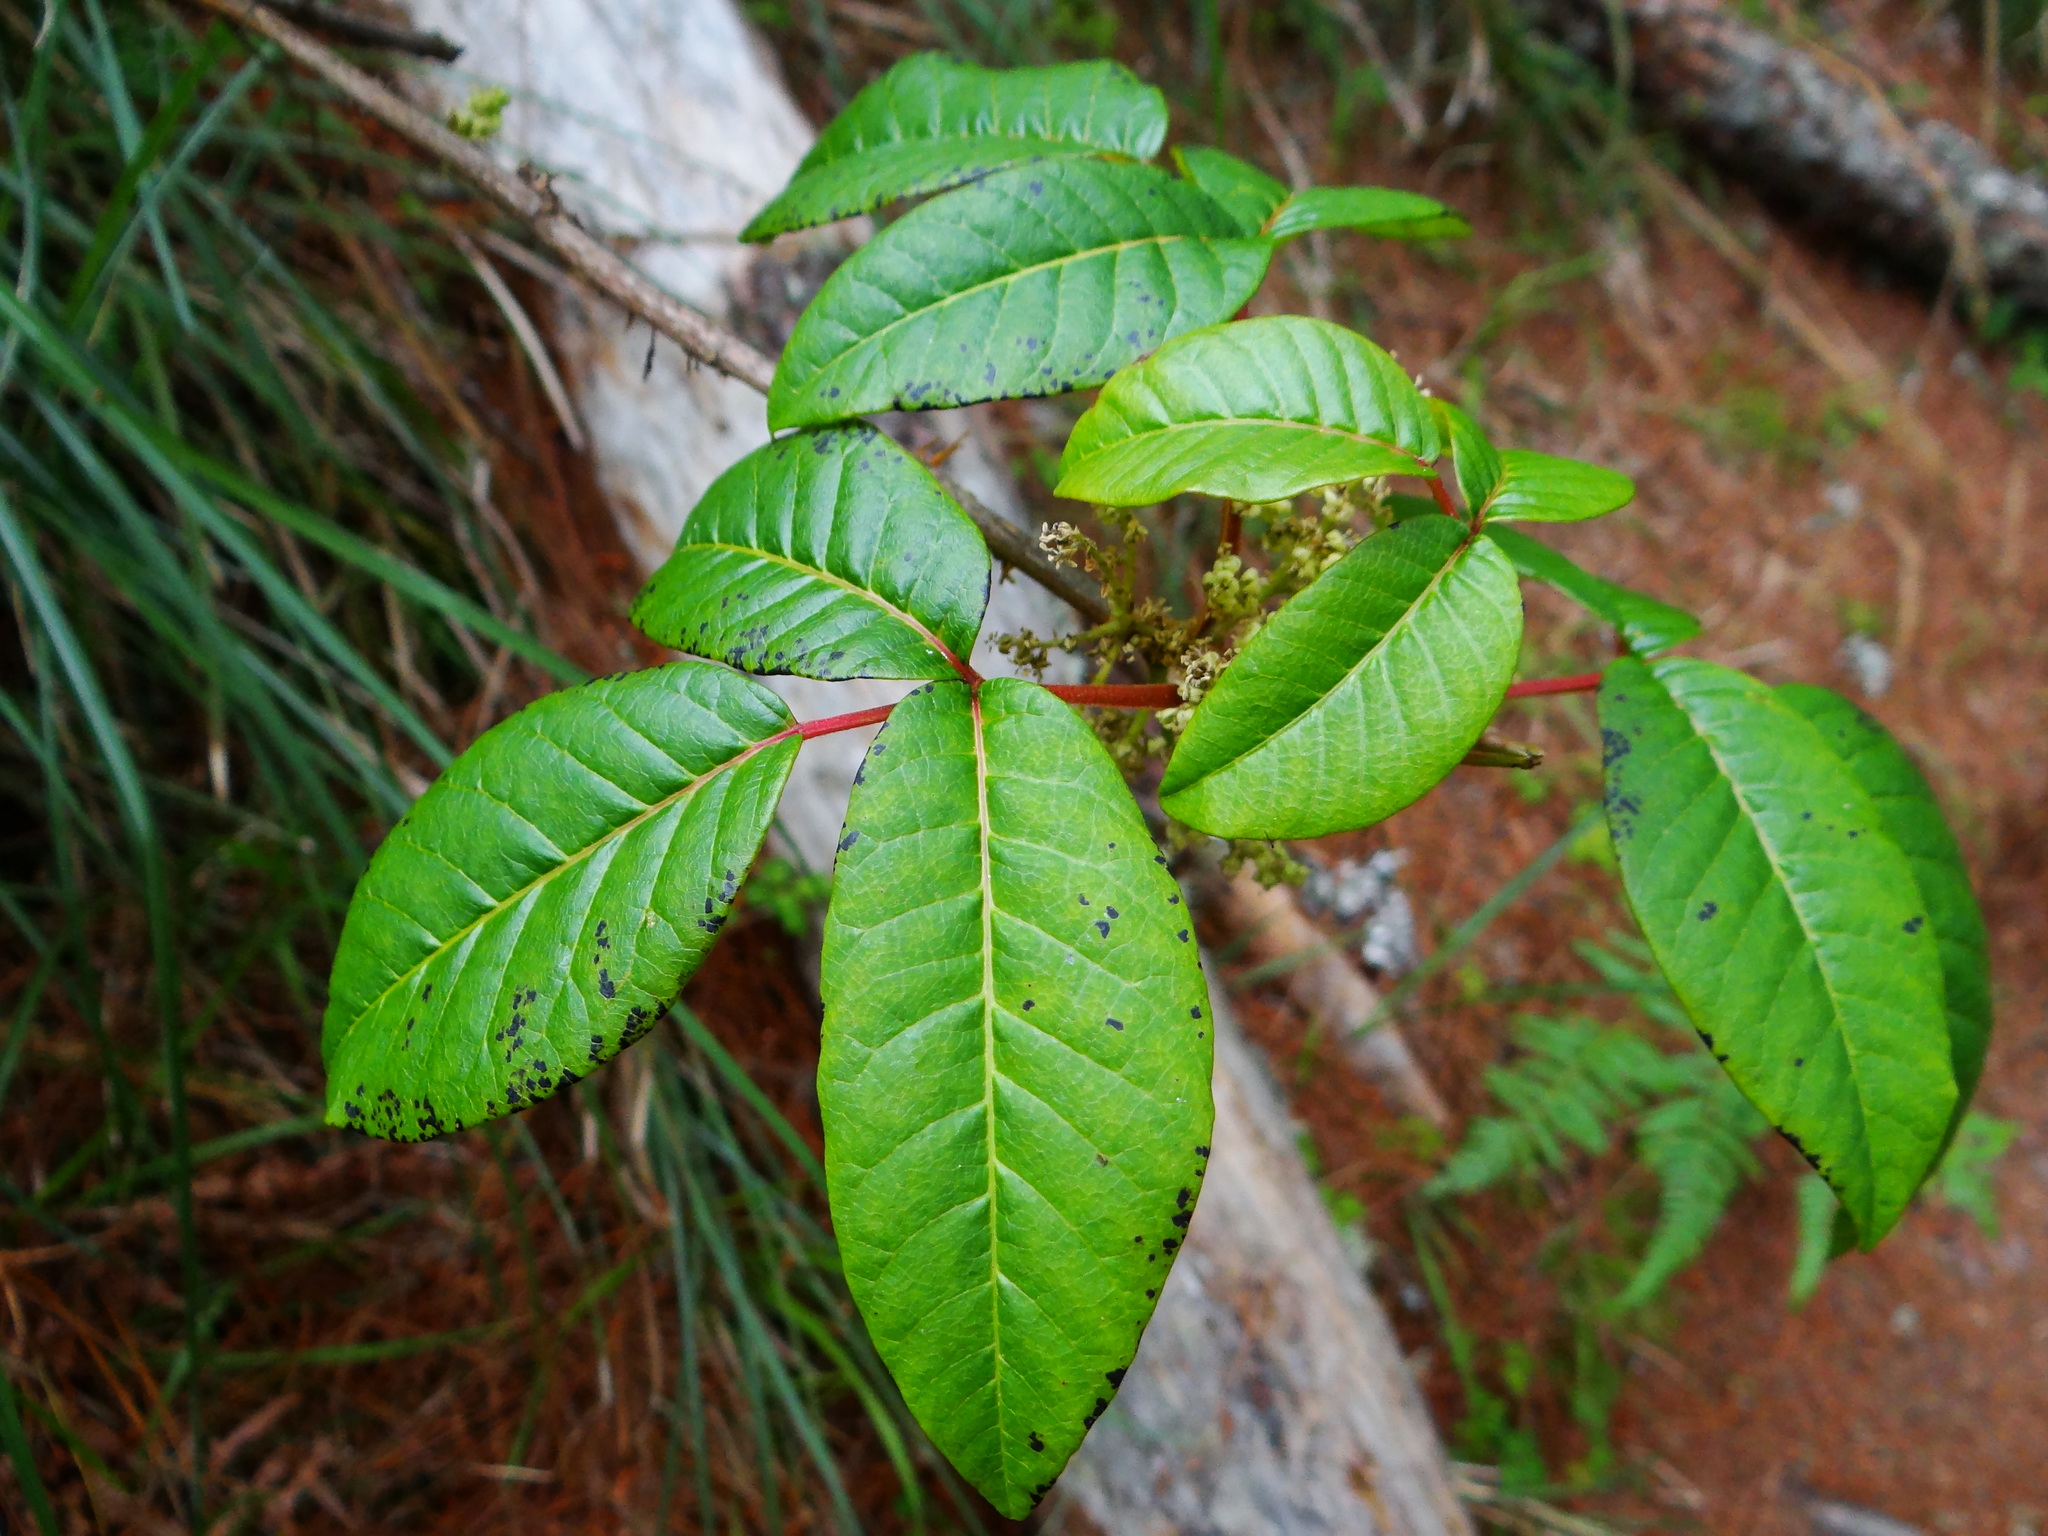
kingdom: Plantae
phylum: Tracheophyta
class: Magnoliopsida
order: Sapindales
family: Anacardiaceae
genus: Toxicodendron
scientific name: Toxicodendron orientale
